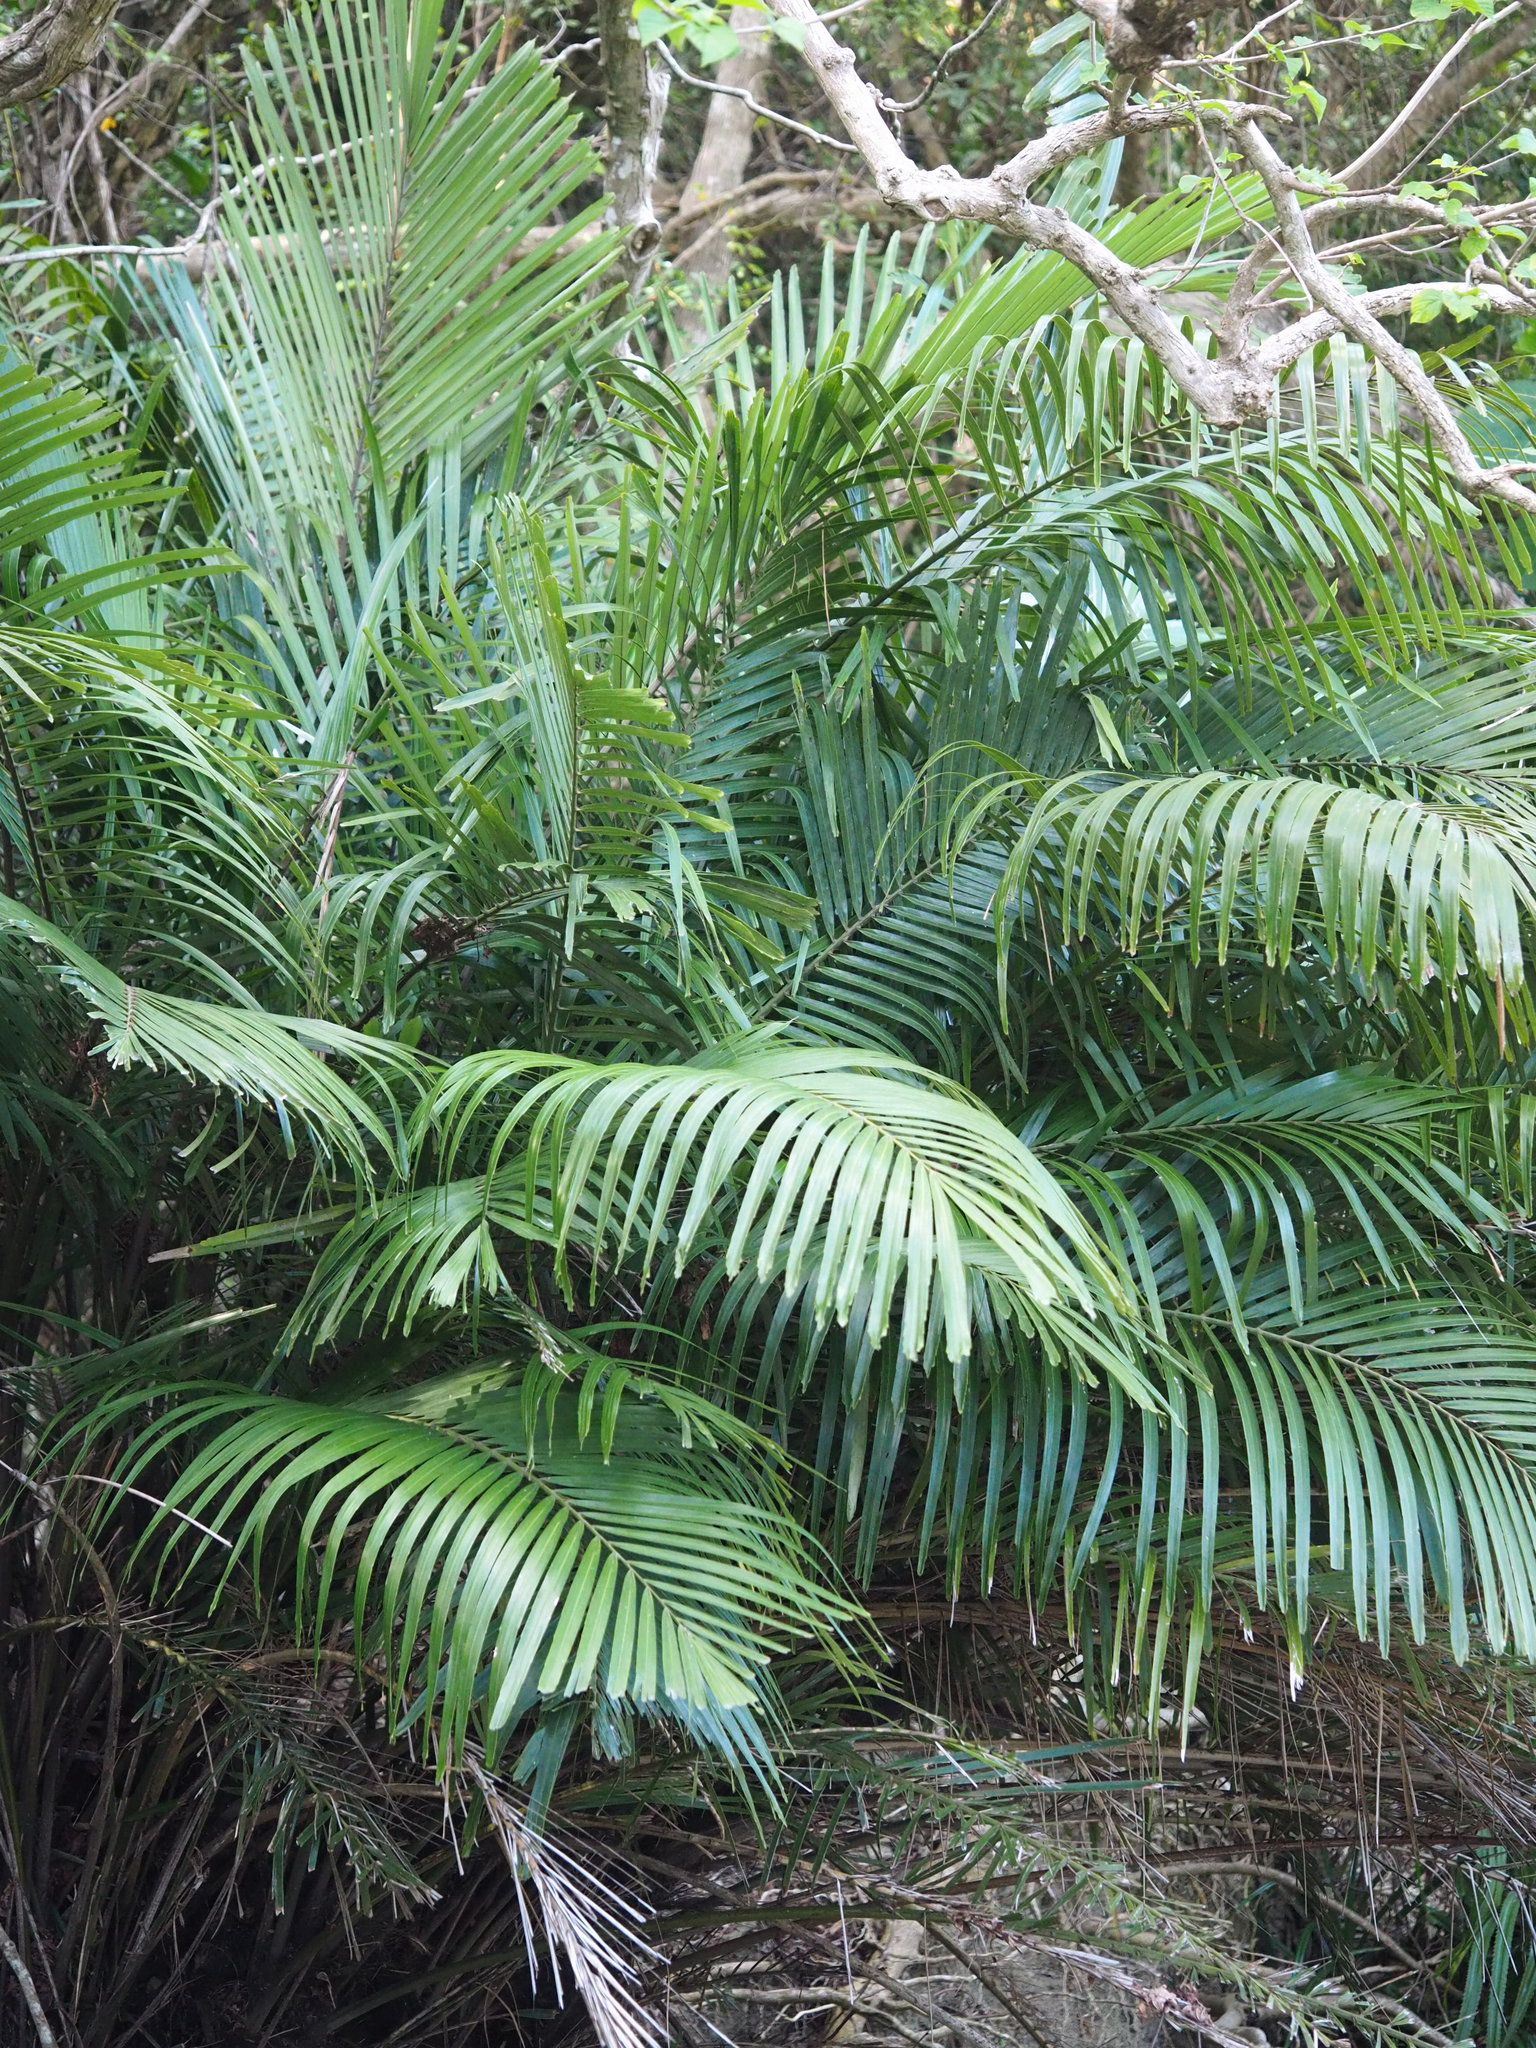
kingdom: Plantae
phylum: Tracheophyta
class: Liliopsida
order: Arecales
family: Arecaceae
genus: Arenga
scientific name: Arenga engleri
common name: Formosan sugar palm
